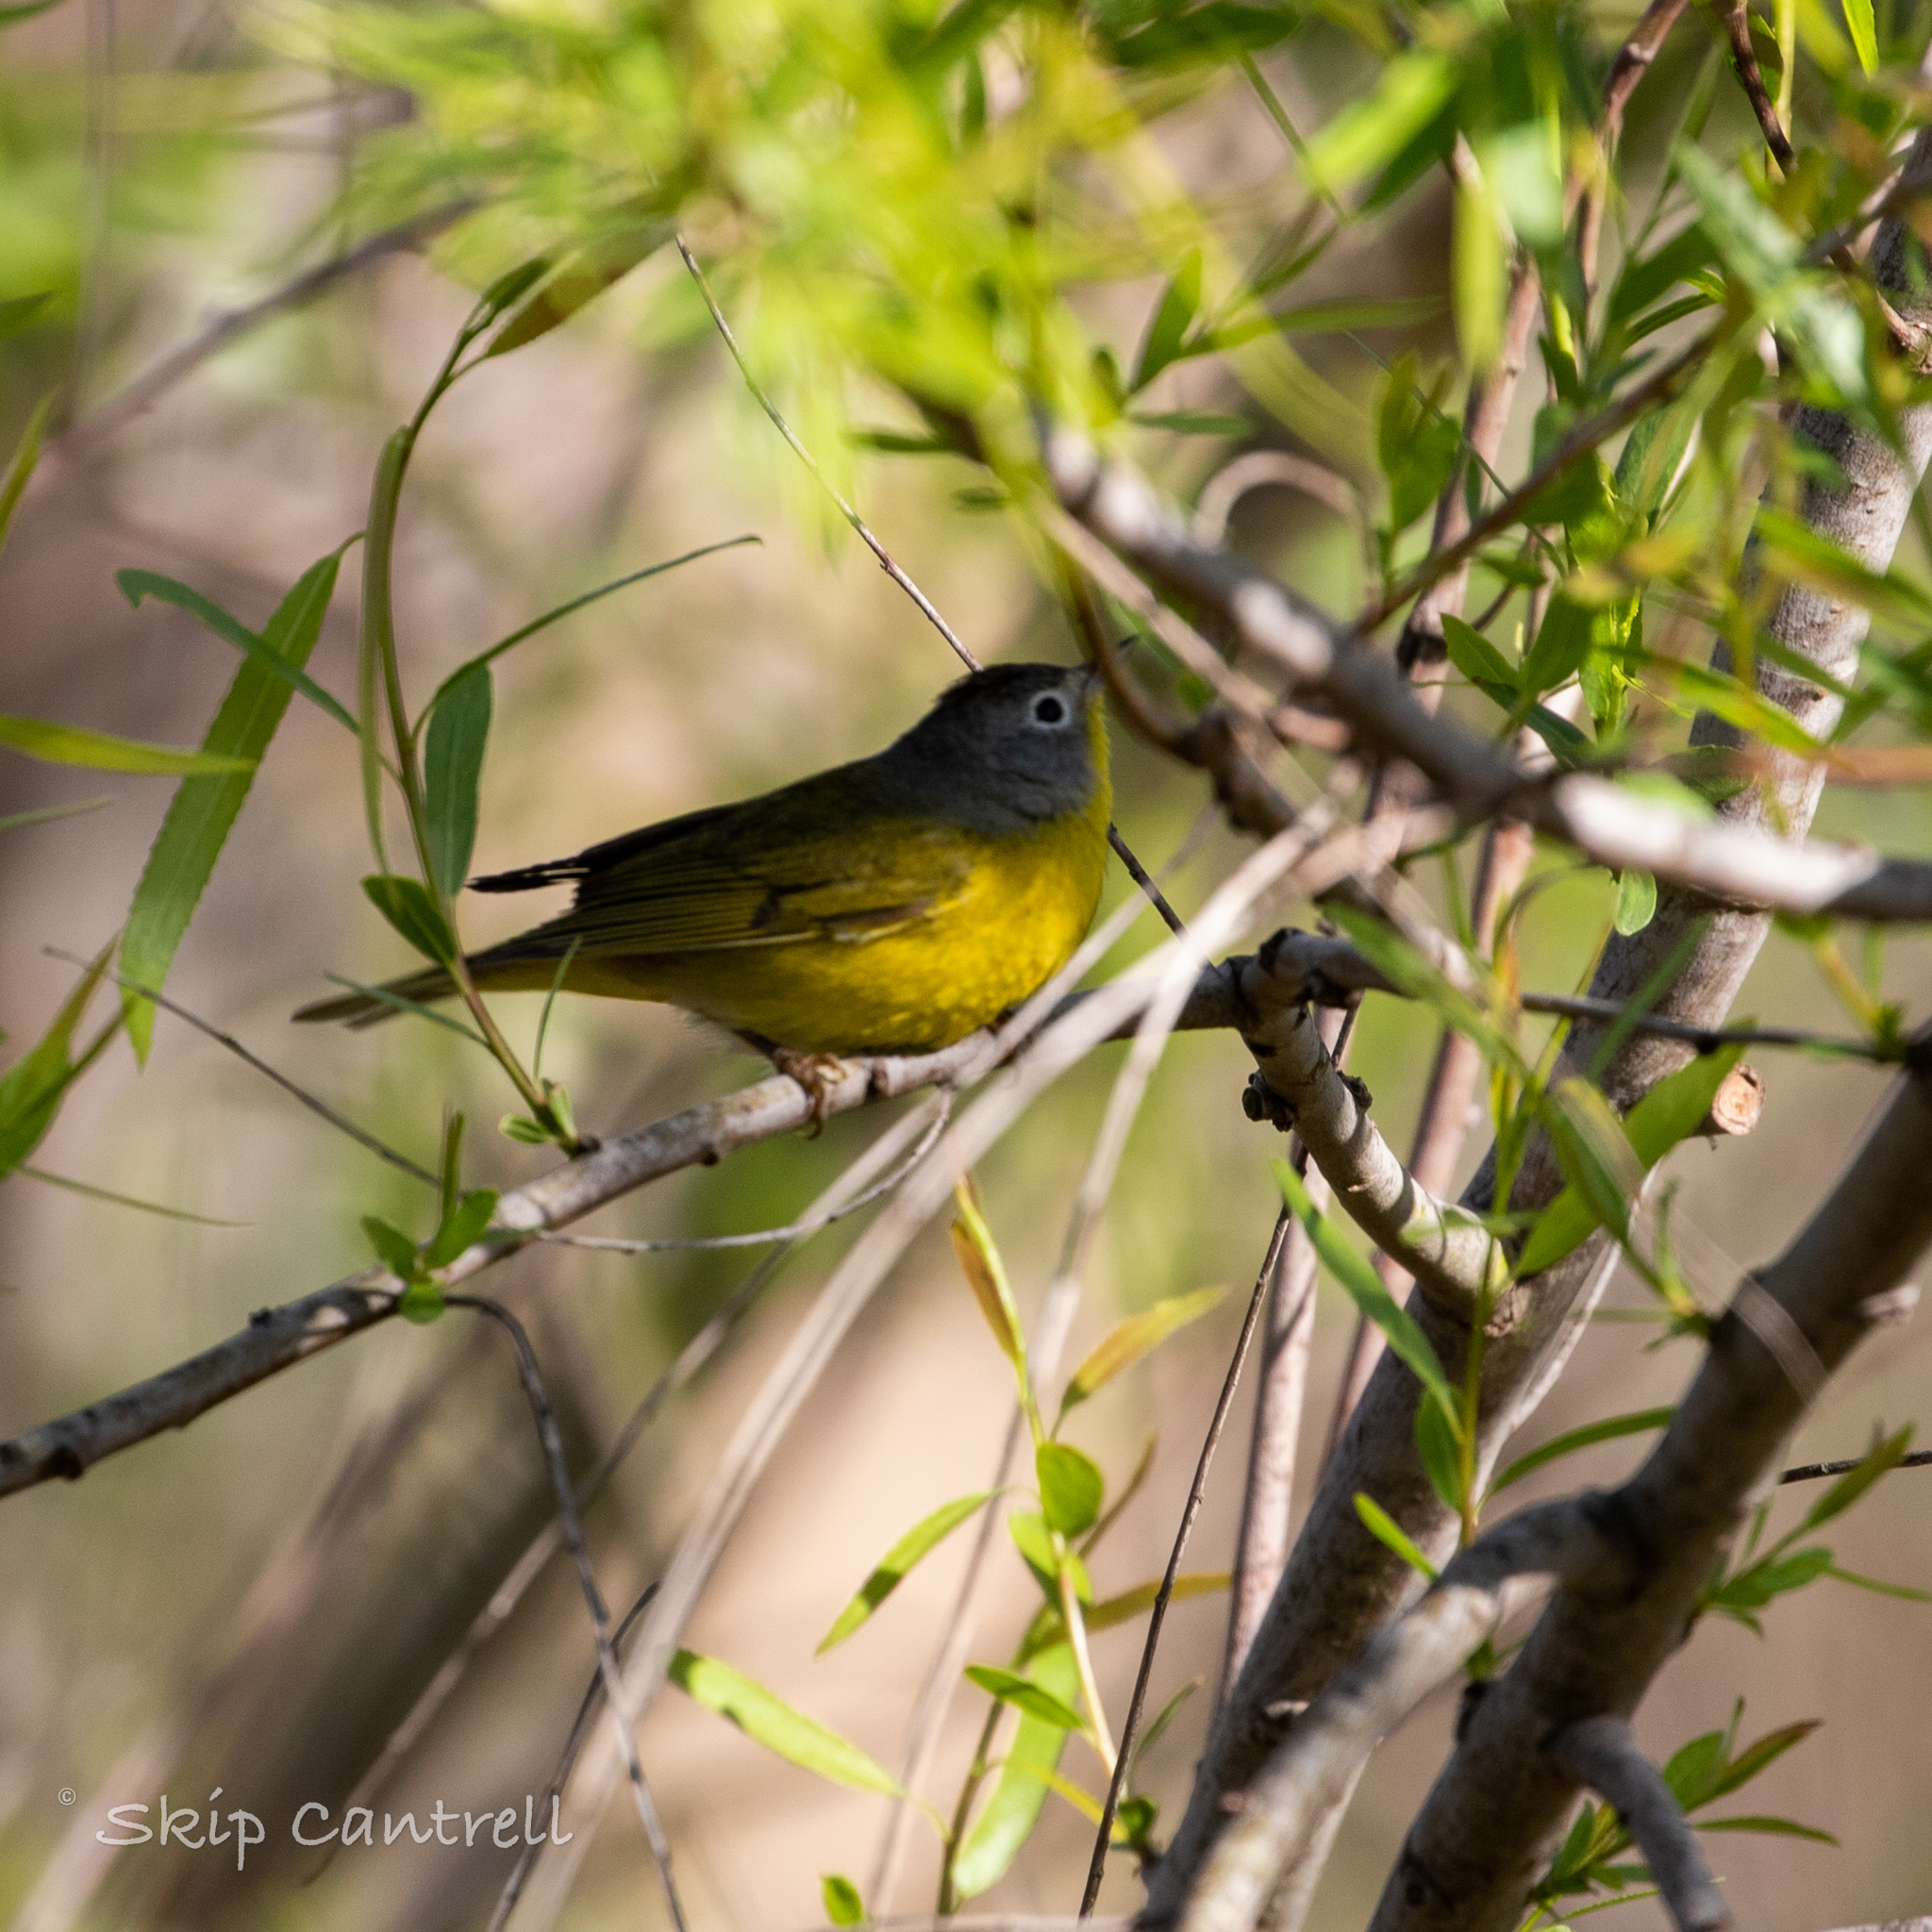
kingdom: Animalia
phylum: Chordata
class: Aves
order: Passeriformes
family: Parulidae
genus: Leiothlypis
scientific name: Leiothlypis ruficapilla
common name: Nashville warbler
